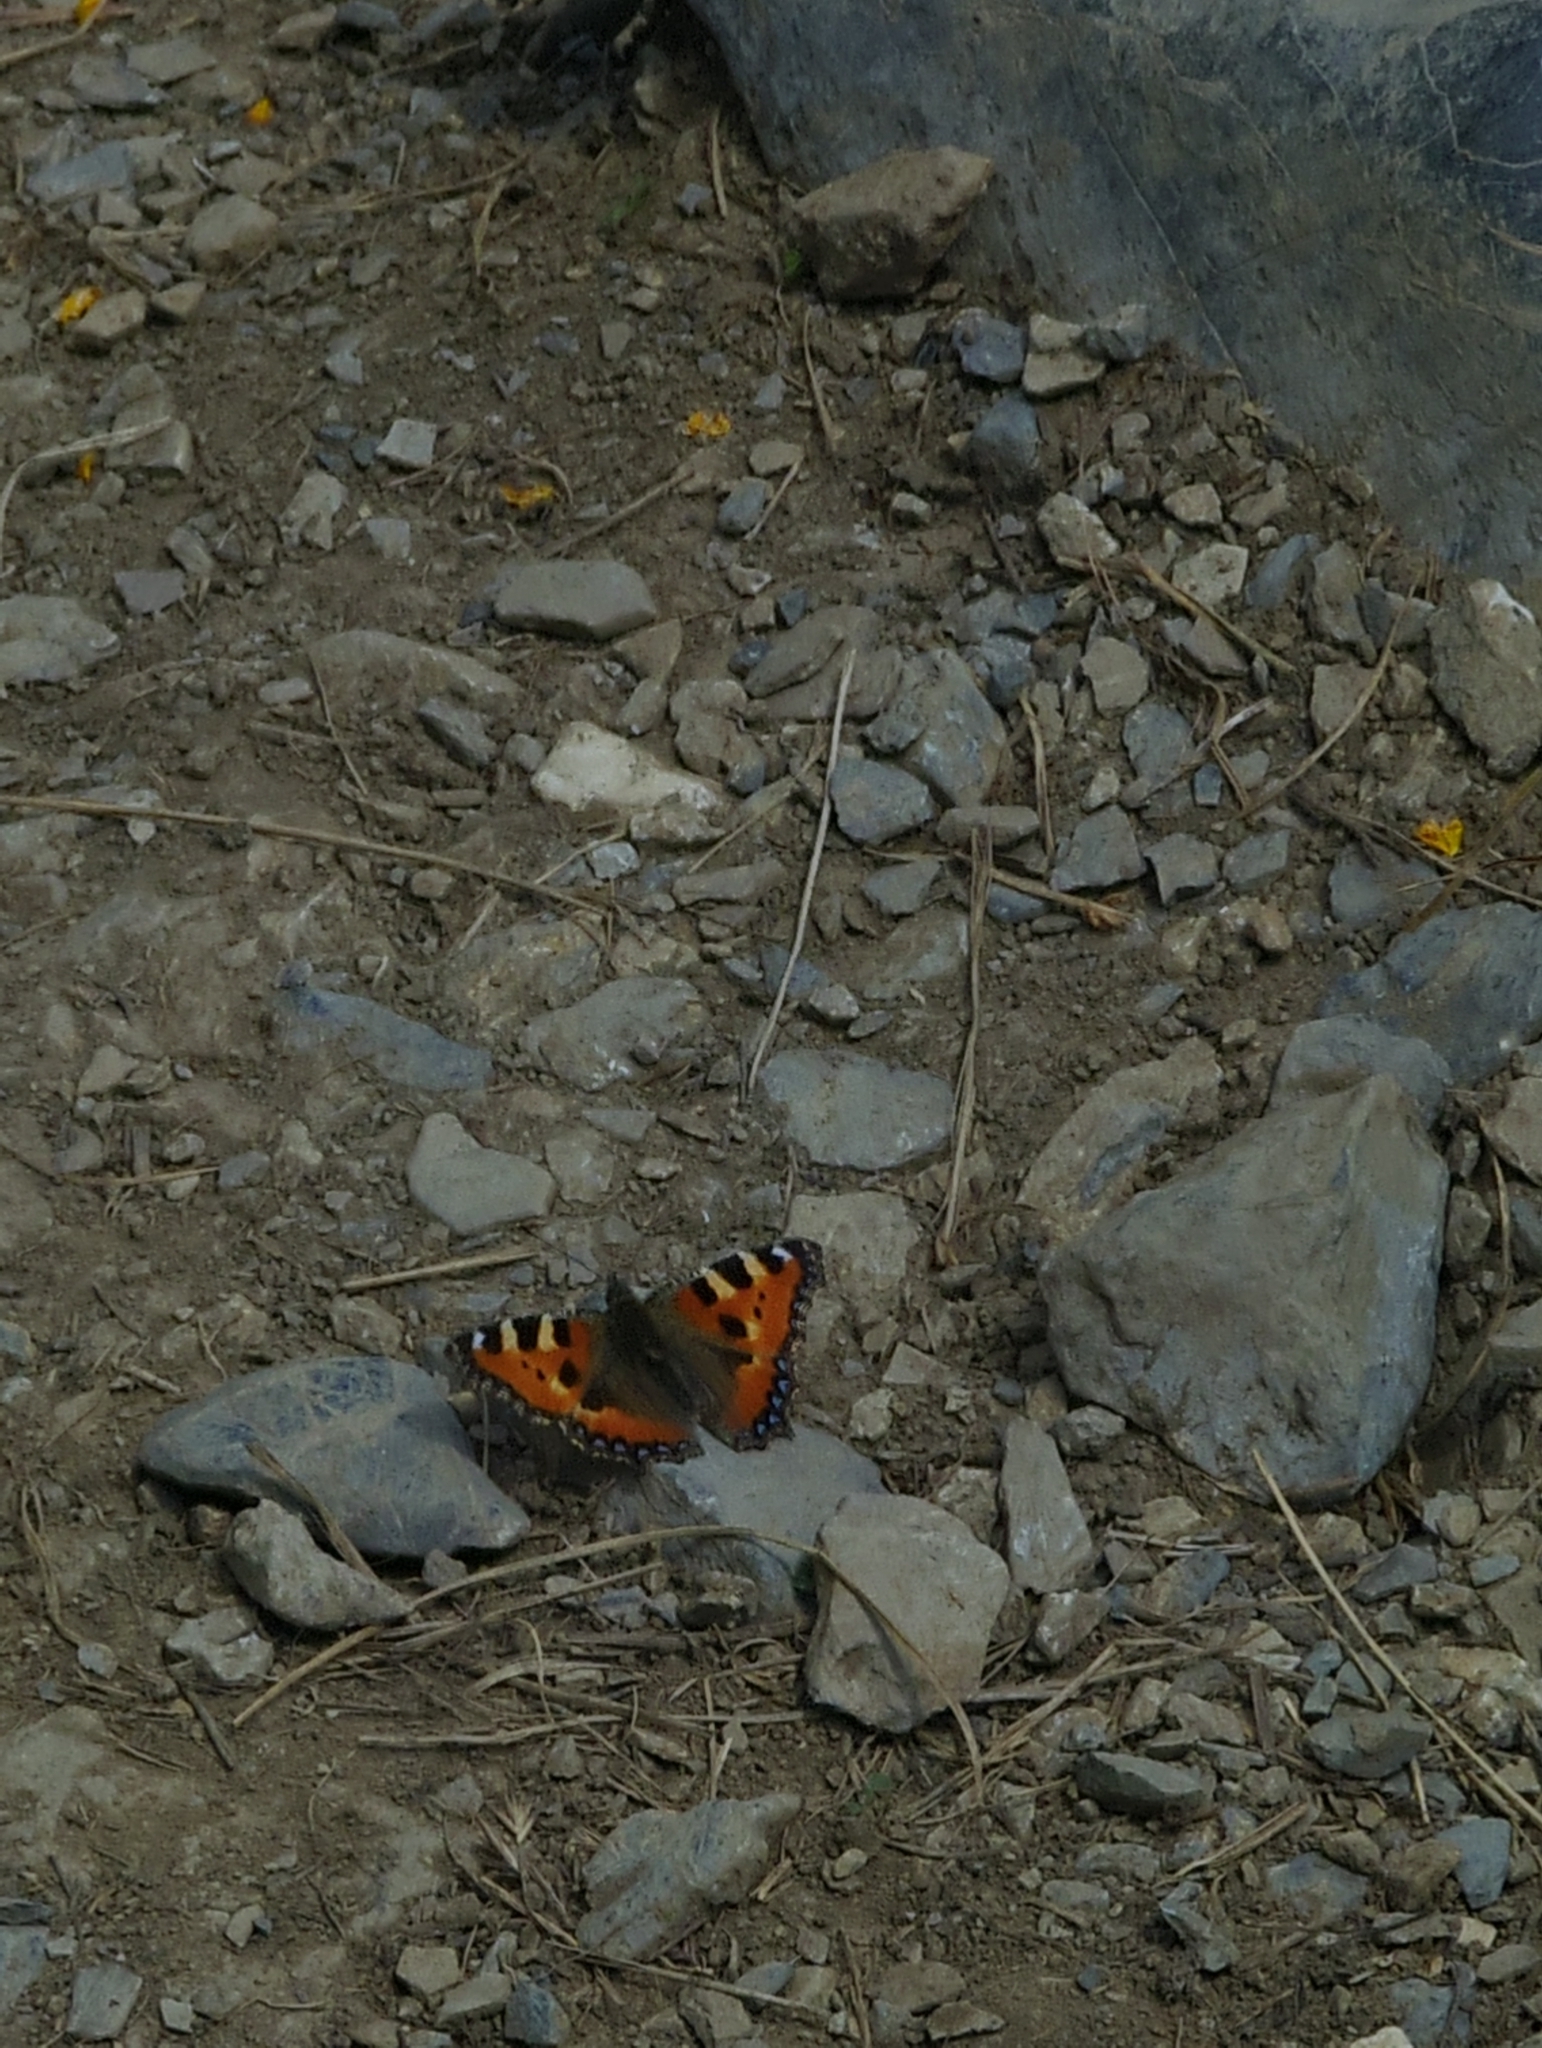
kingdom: Animalia
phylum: Arthropoda
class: Insecta
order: Lepidoptera
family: Nymphalidae
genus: Aglais
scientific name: Aglais urticae
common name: Small tortoiseshell
